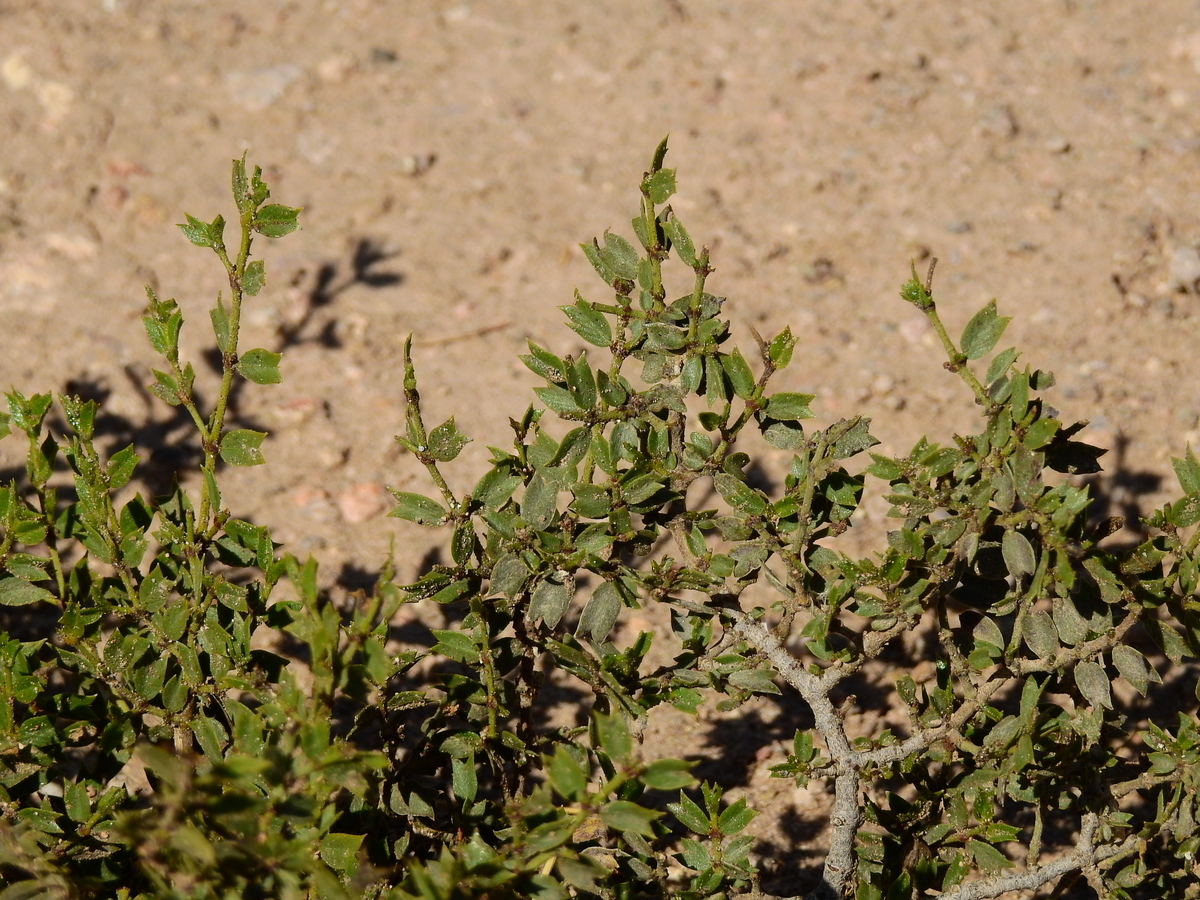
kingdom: Plantae
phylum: Tracheophyta
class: Magnoliopsida
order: Zygophyllales
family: Zygophyllaceae
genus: Larrea
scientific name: Larrea divaricata
